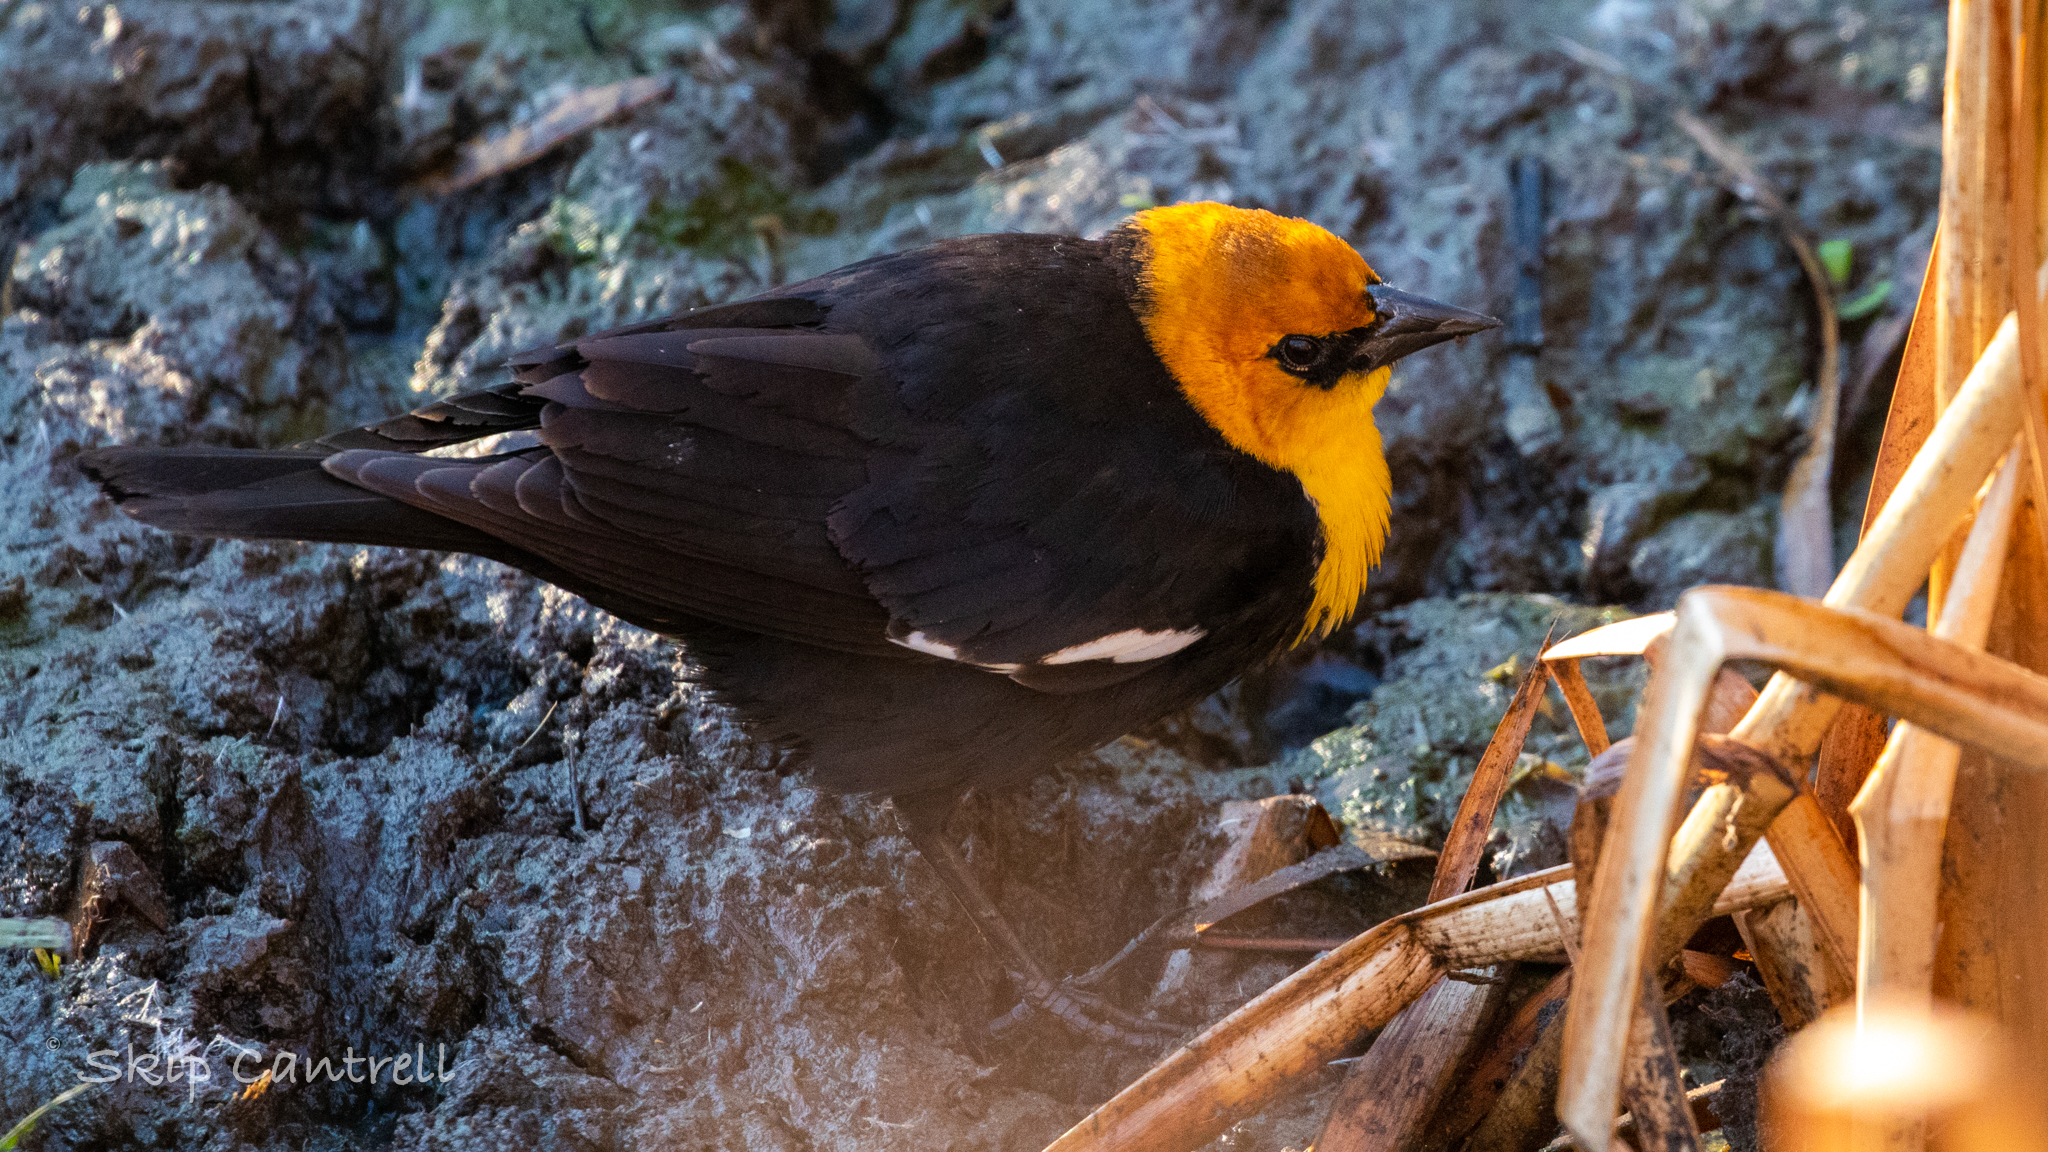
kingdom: Animalia
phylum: Chordata
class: Aves
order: Passeriformes
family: Icteridae
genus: Xanthocephalus
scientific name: Xanthocephalus xanthocephalus
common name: Yellow-headed blackbird
